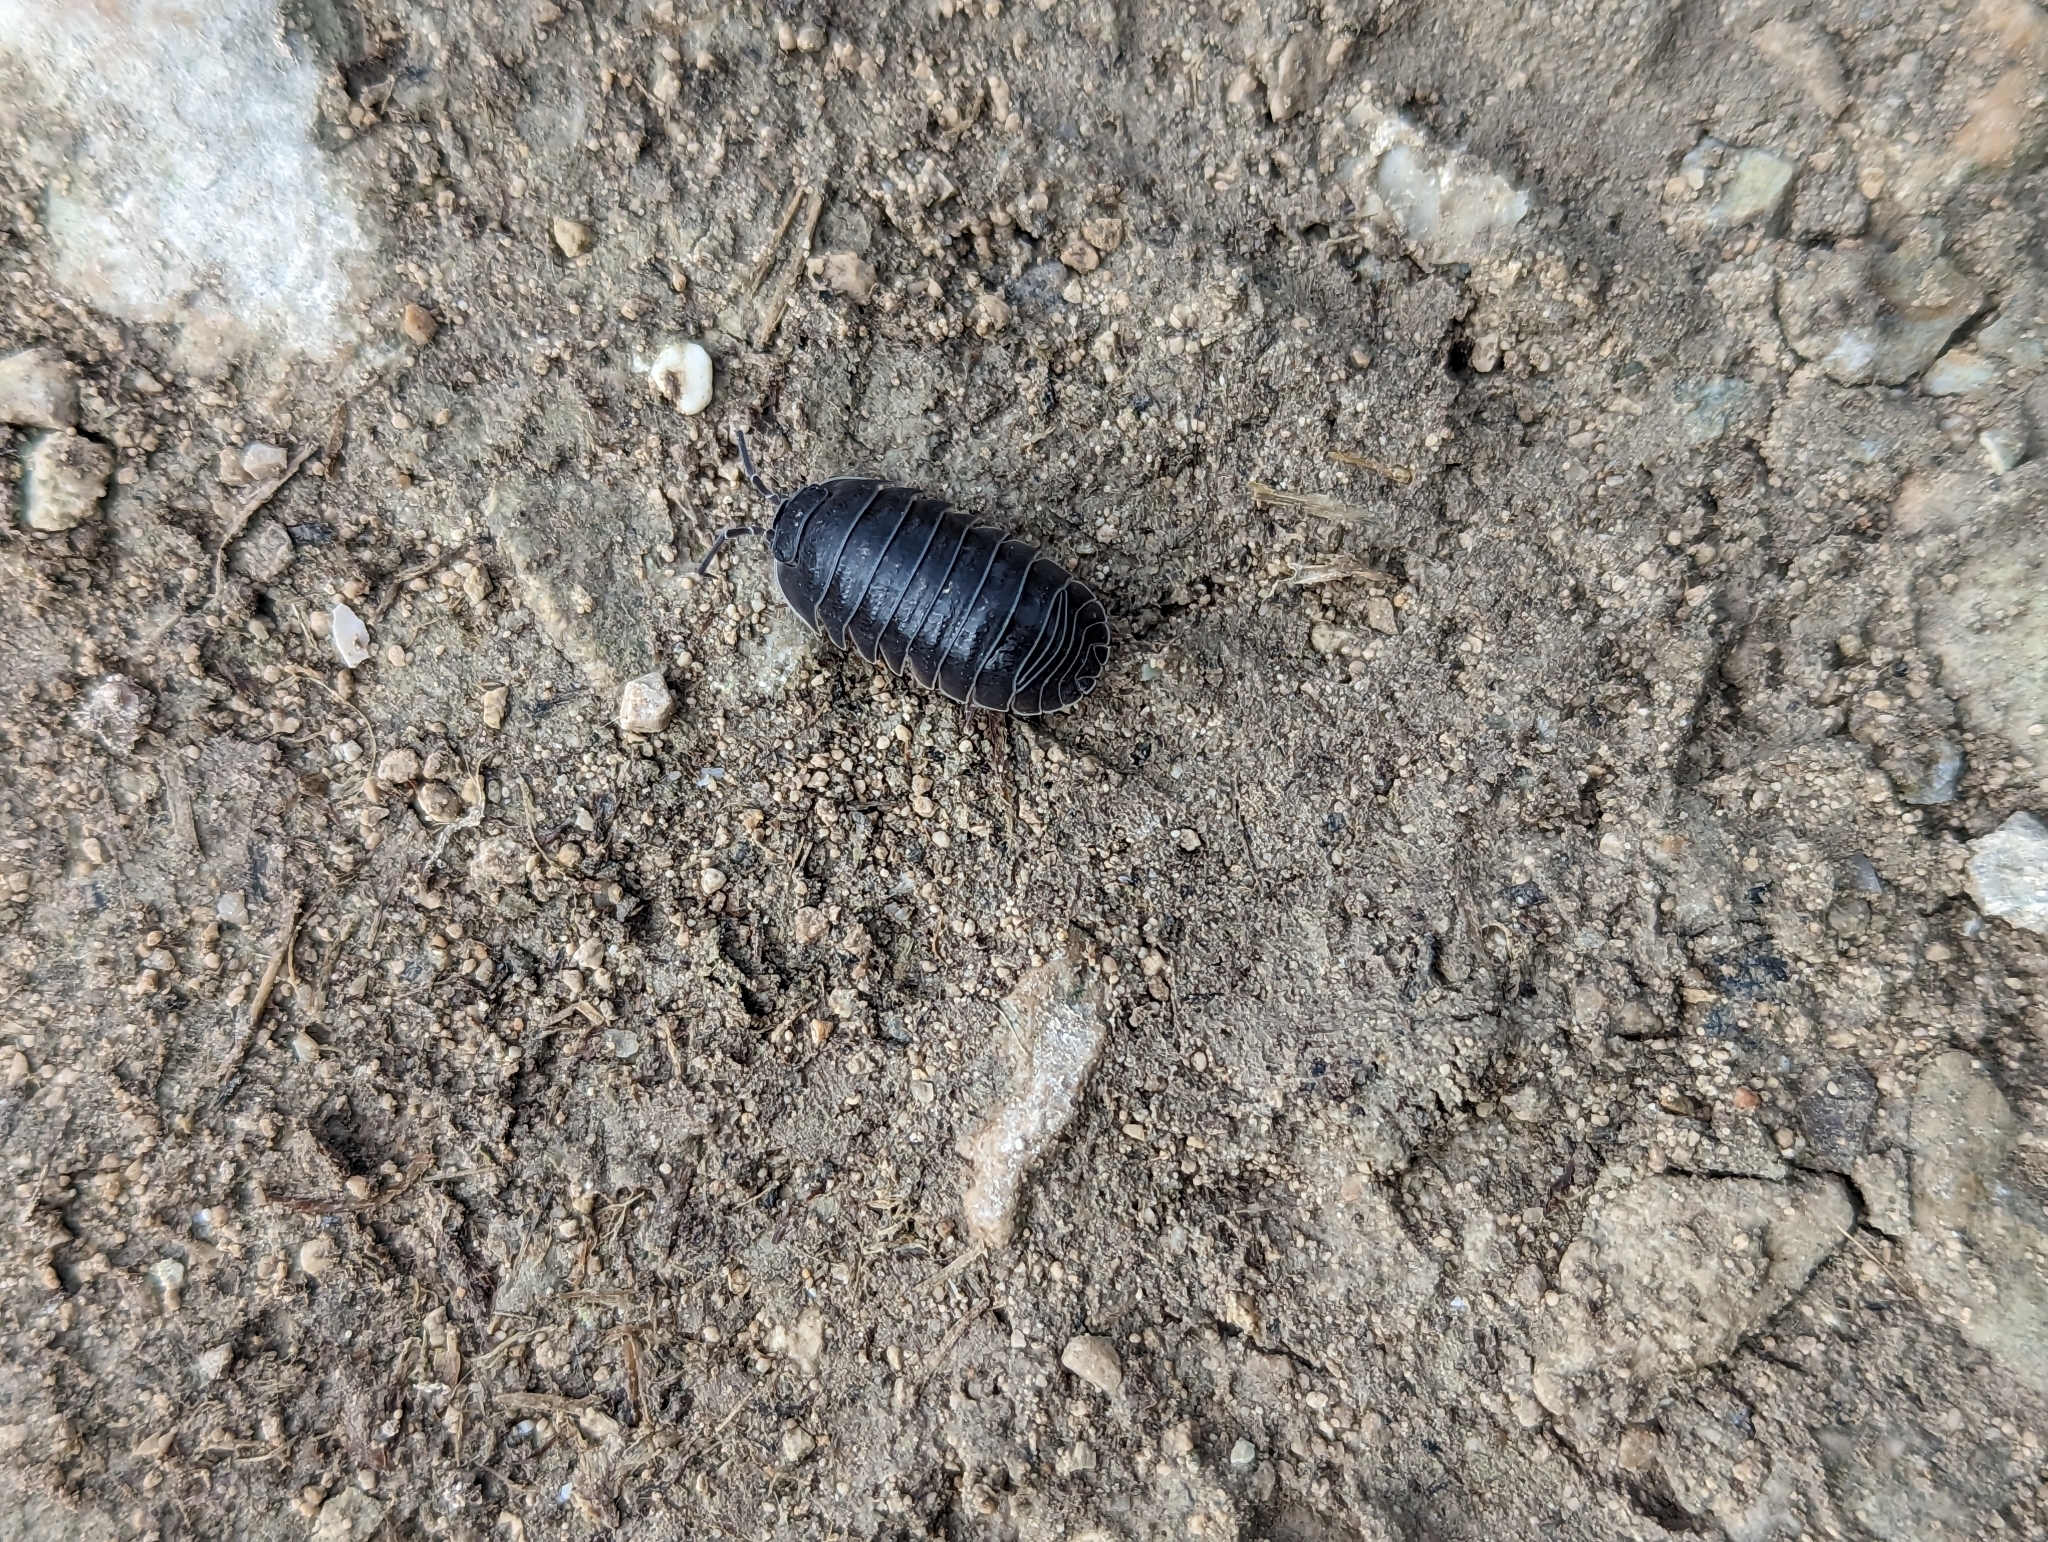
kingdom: Animalia
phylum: Arthropoda
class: Malacostraca
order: Isopoda
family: Armadillidiidae
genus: Armadillidium
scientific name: Armadillidium depressum
